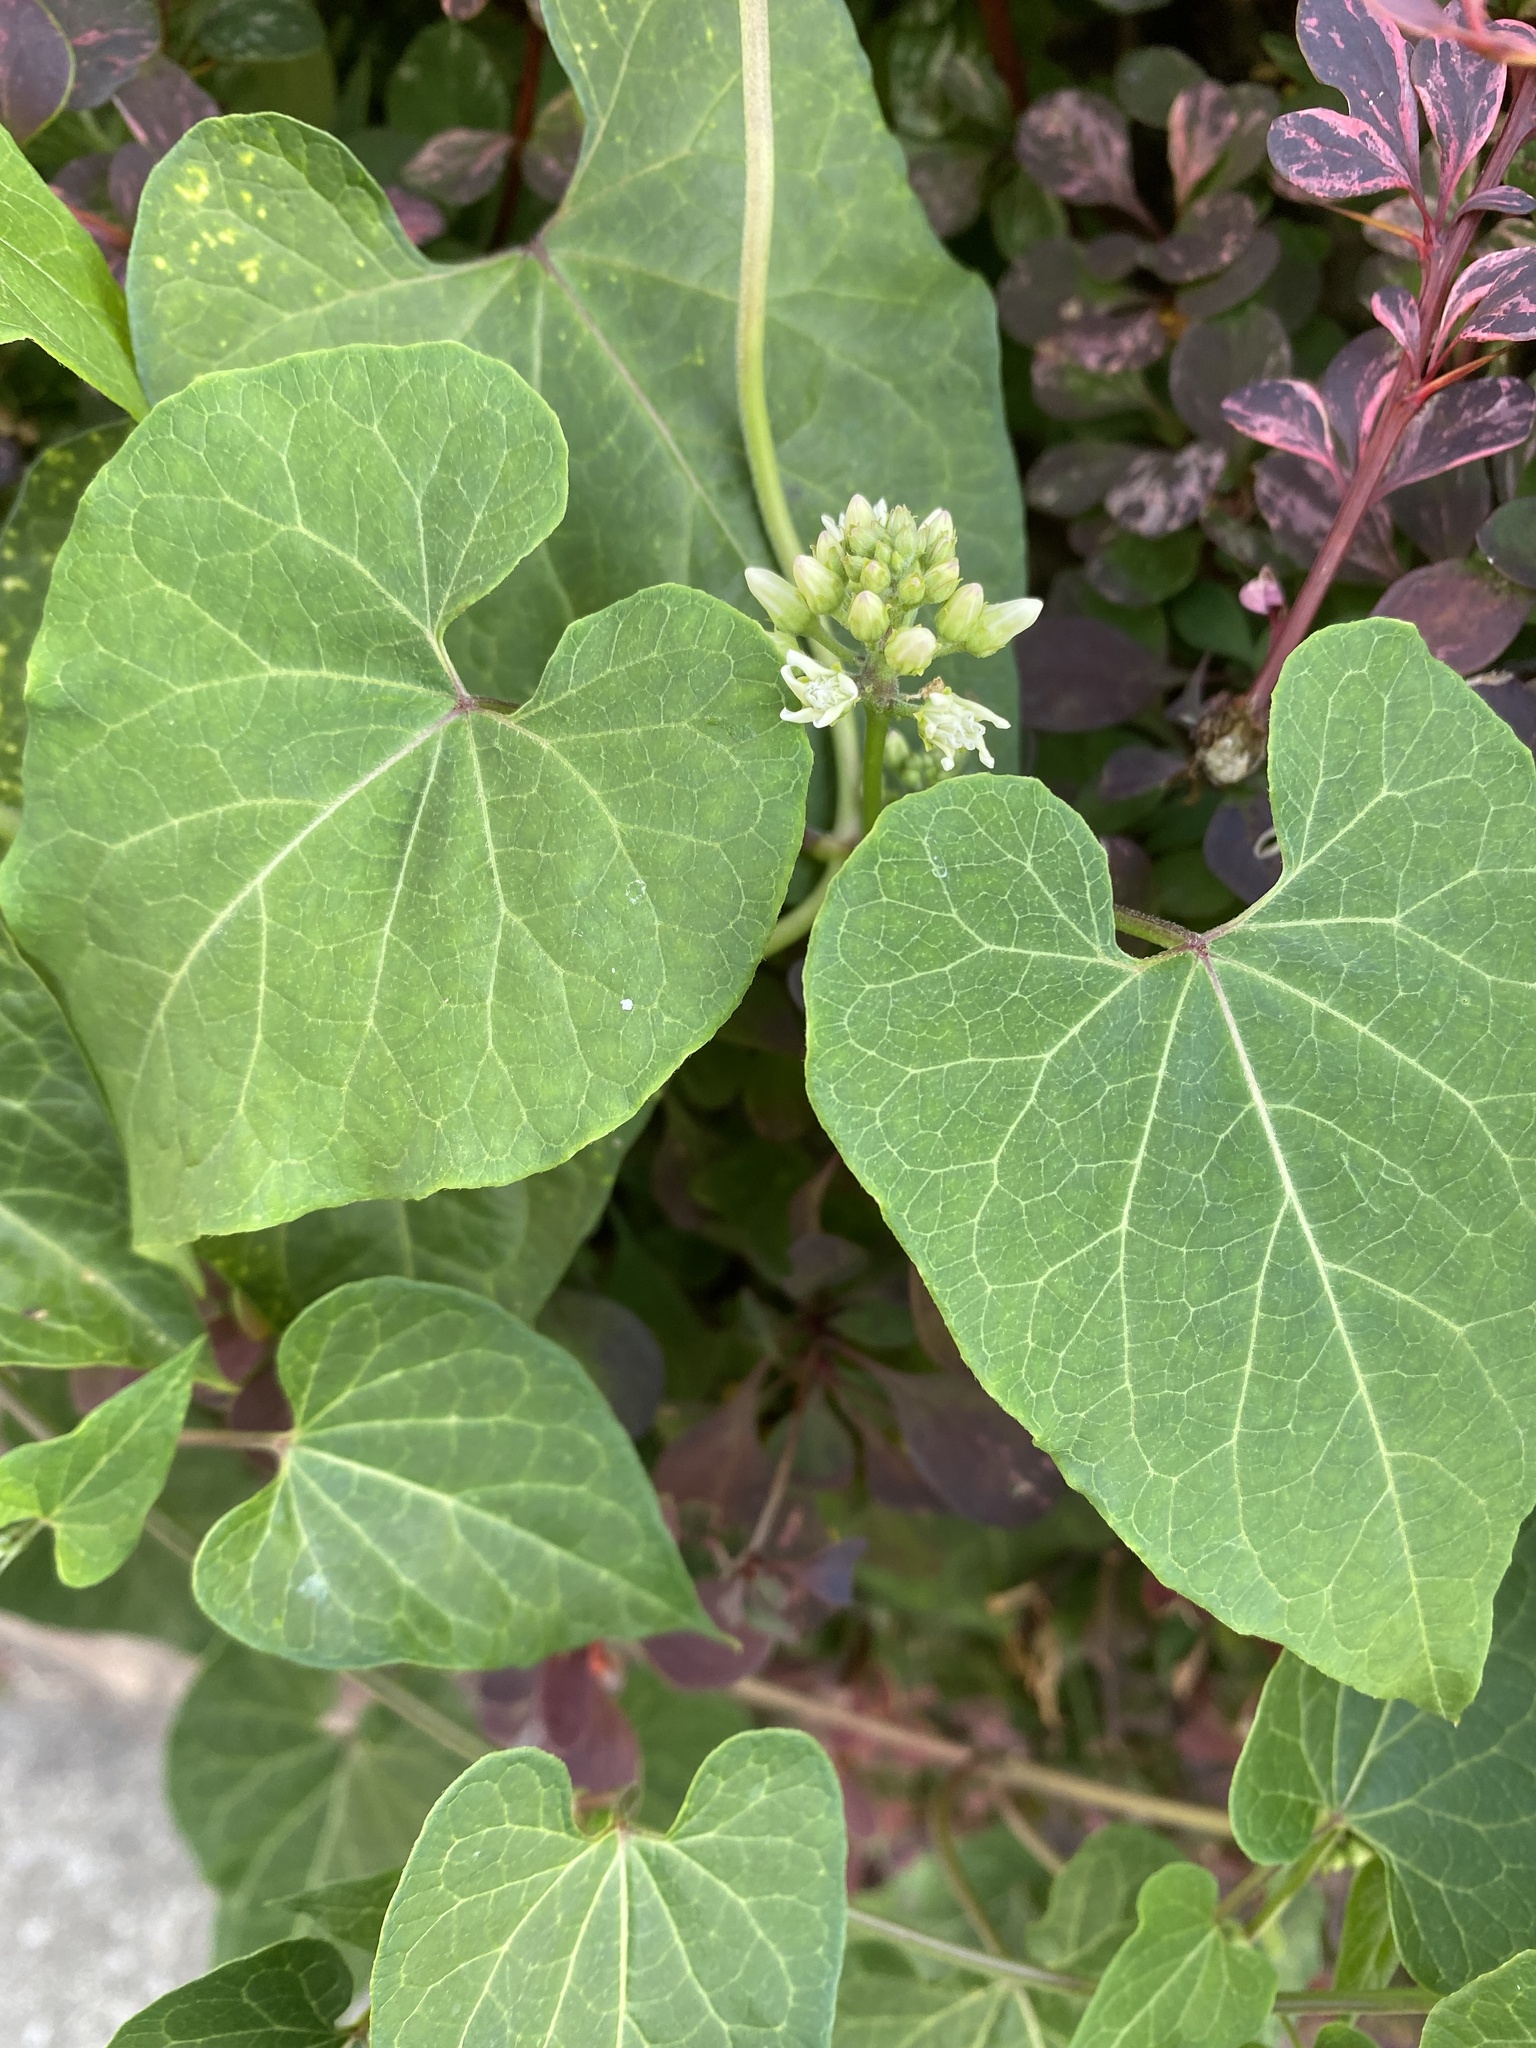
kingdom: Plantae
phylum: Tracheophyta
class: Magnoliopsida
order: Gentianales
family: Apocynaceae
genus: Cynanchum
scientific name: Cynanchum laeve
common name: Sandvine
